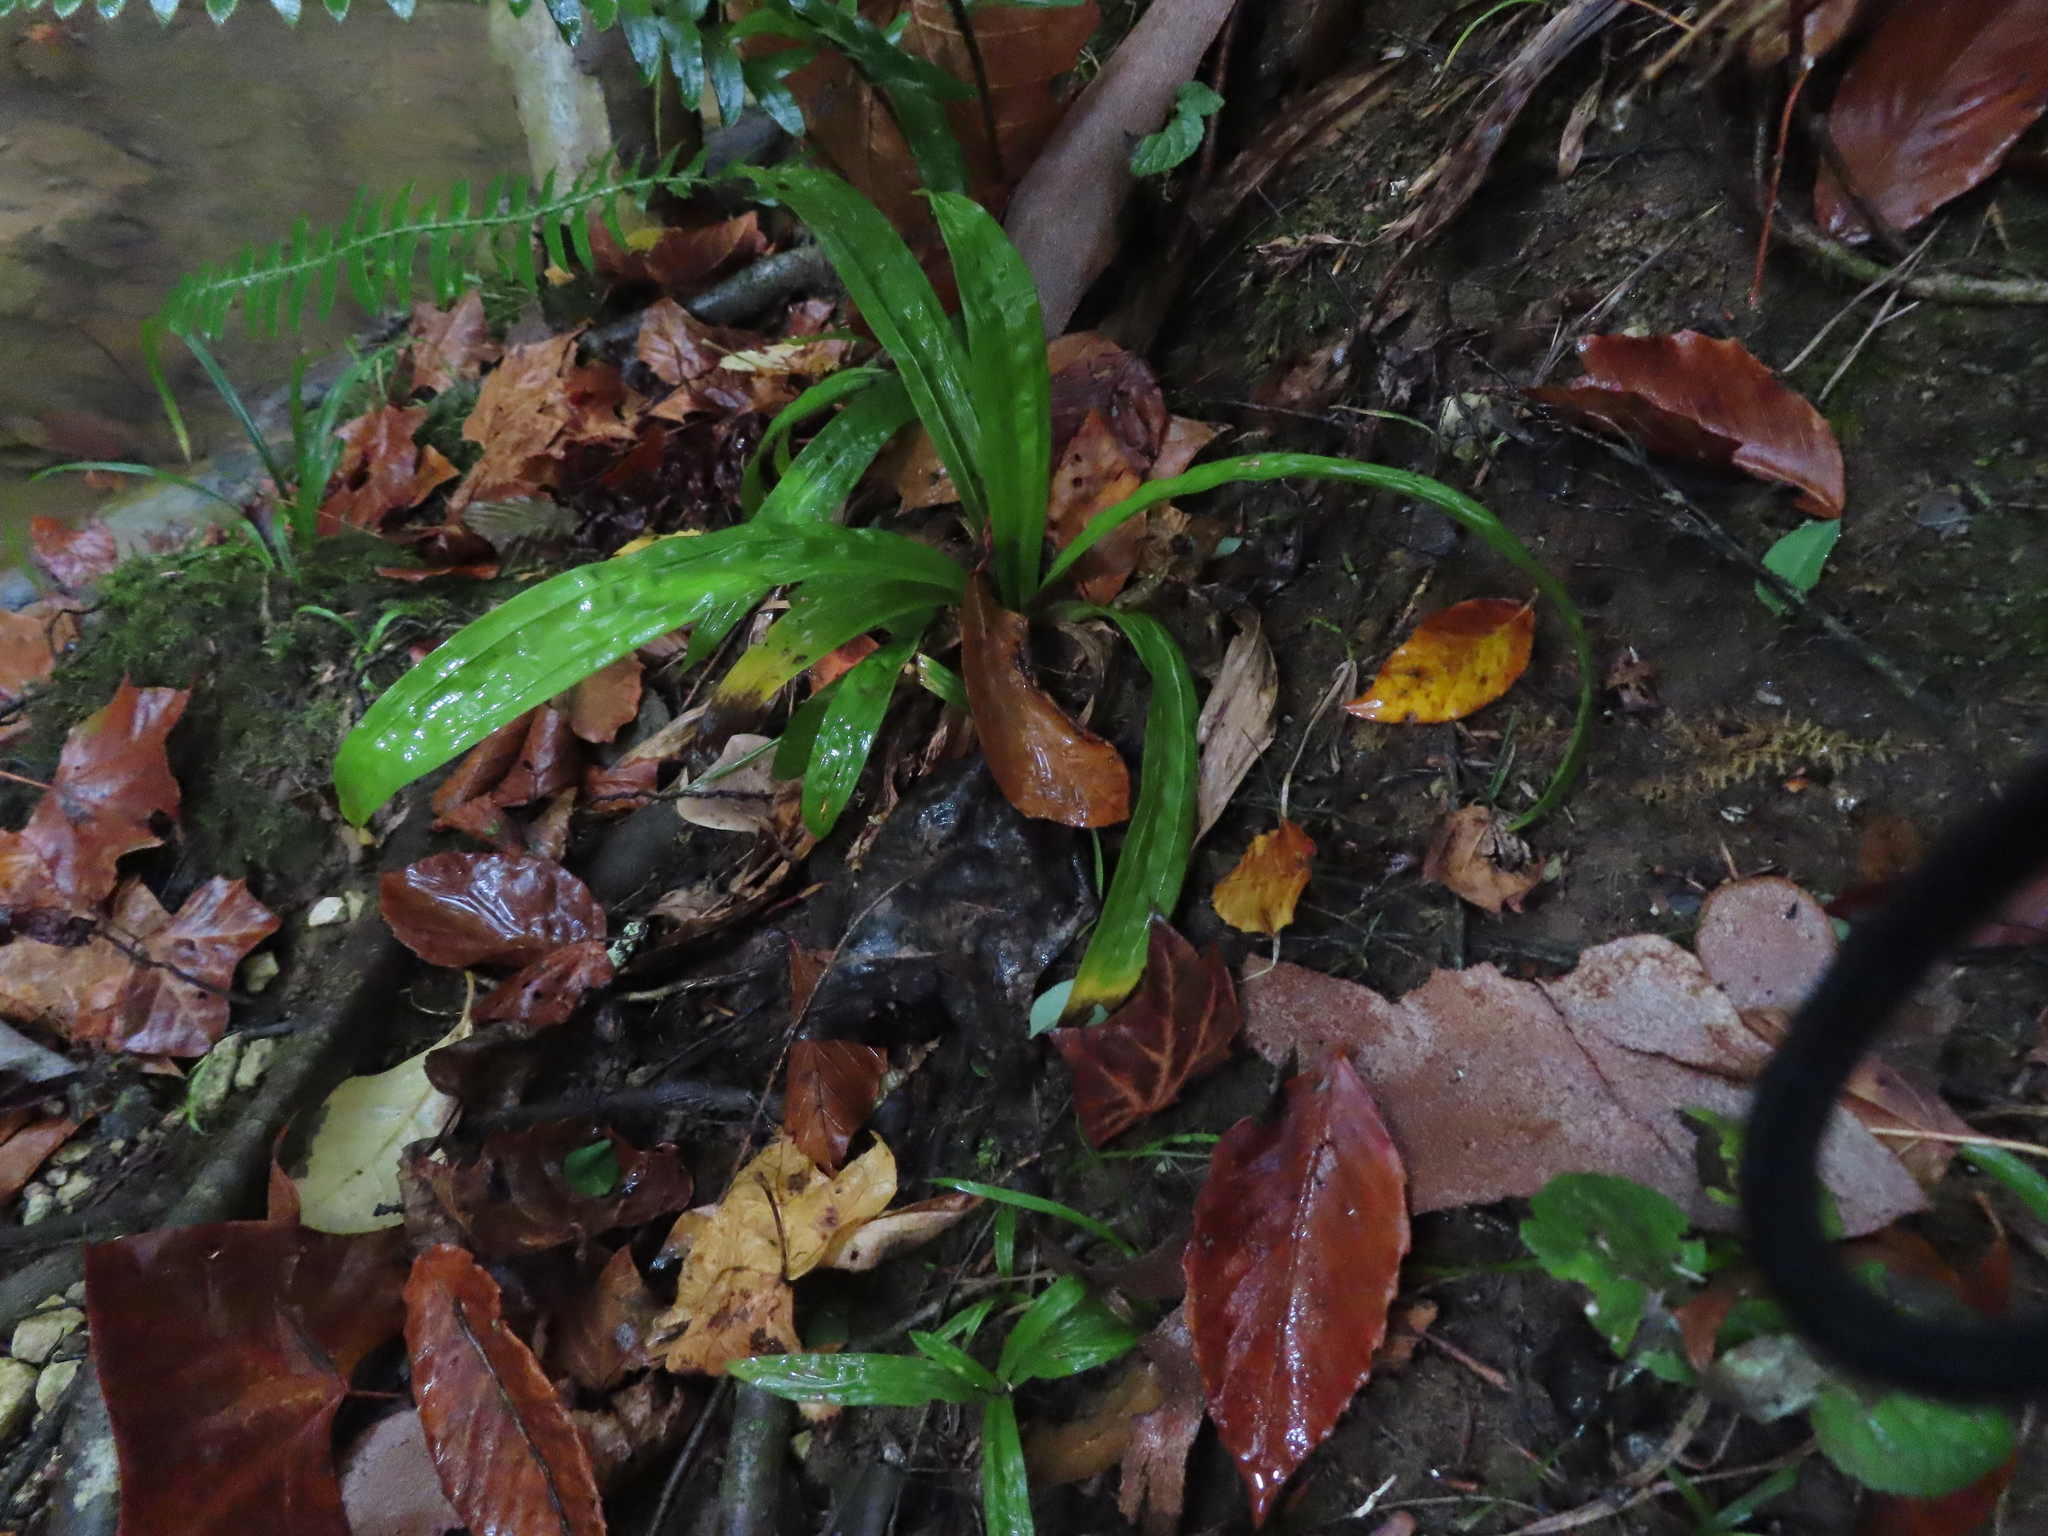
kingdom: Plantae
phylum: Tracheophyta
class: Liliopsida
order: Poales
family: Cyperaceae
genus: Carex
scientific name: Carex plantaginea
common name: Plantain-leaved sedge
